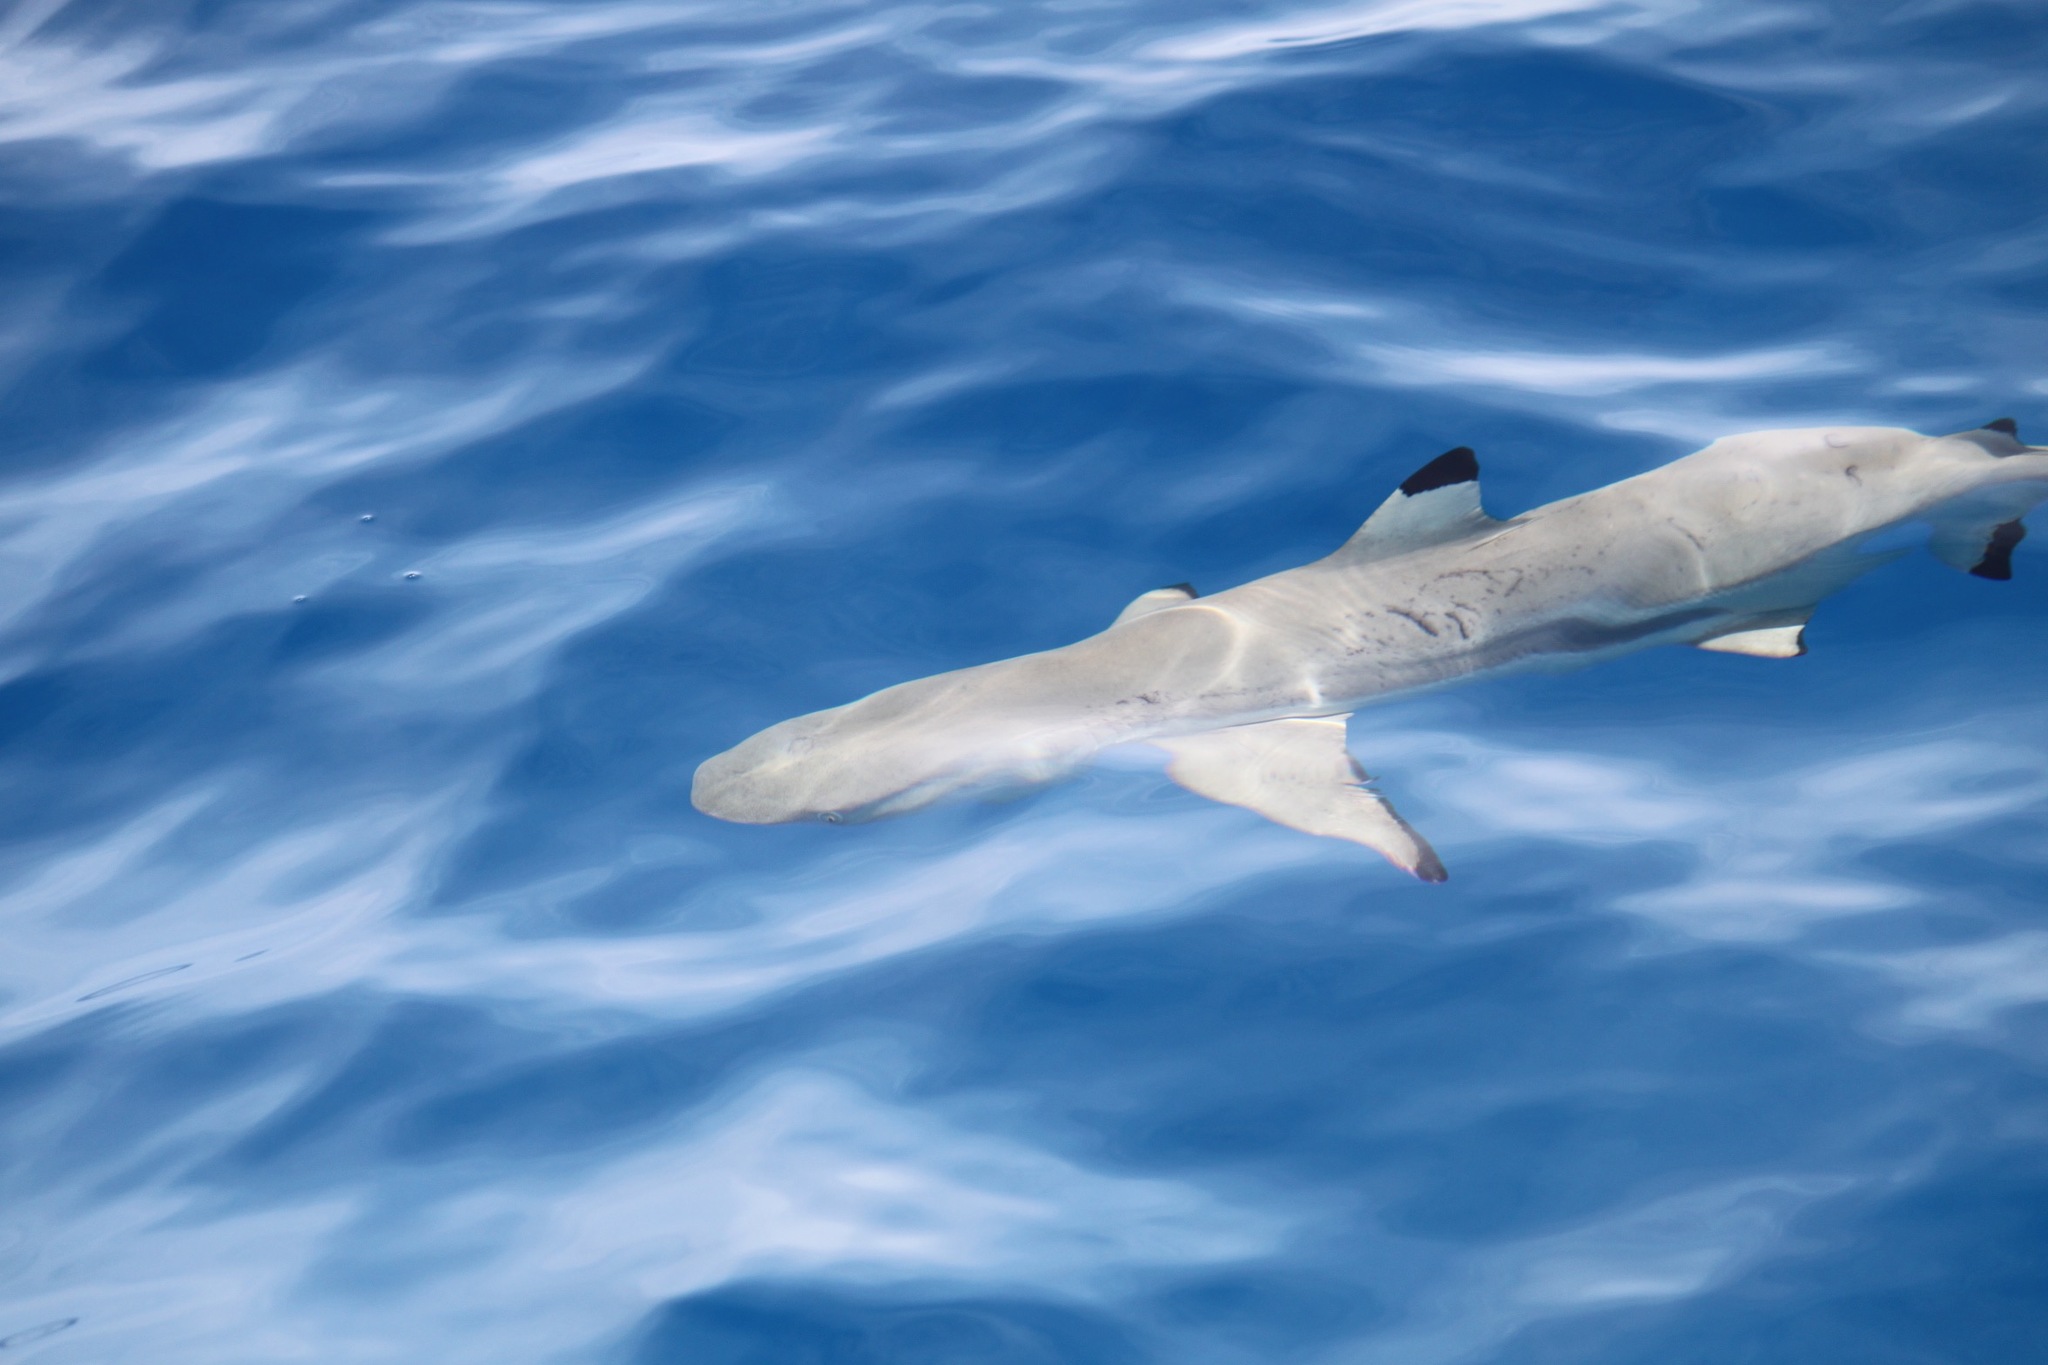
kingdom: Animalia
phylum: Chordata
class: Elasmobranchii
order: Carcharhiniformes
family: Carcharhinidae
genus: Carcharhinus
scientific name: Carcharhinus melanopterus
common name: Blacktip reef shark
